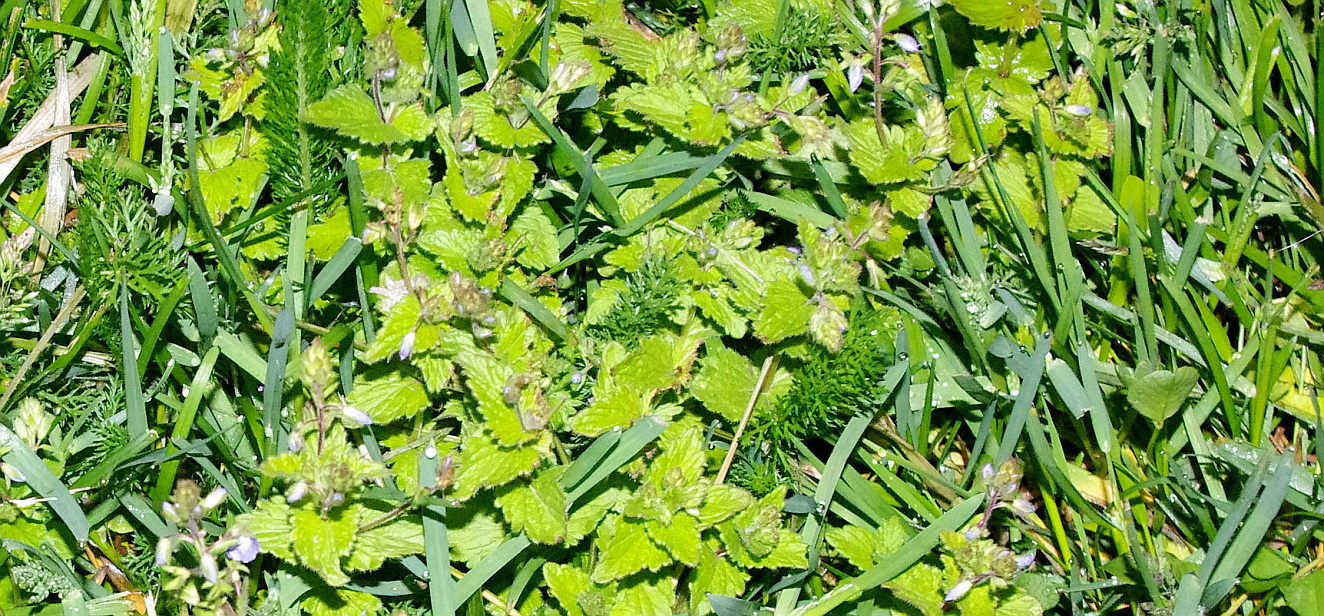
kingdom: Plantae
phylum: Tracheophyta
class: Magnoliopsida
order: Lamiales
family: Plantaginaceae
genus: Veronica
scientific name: Veronica chamaedrys
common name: Germander speedwell
